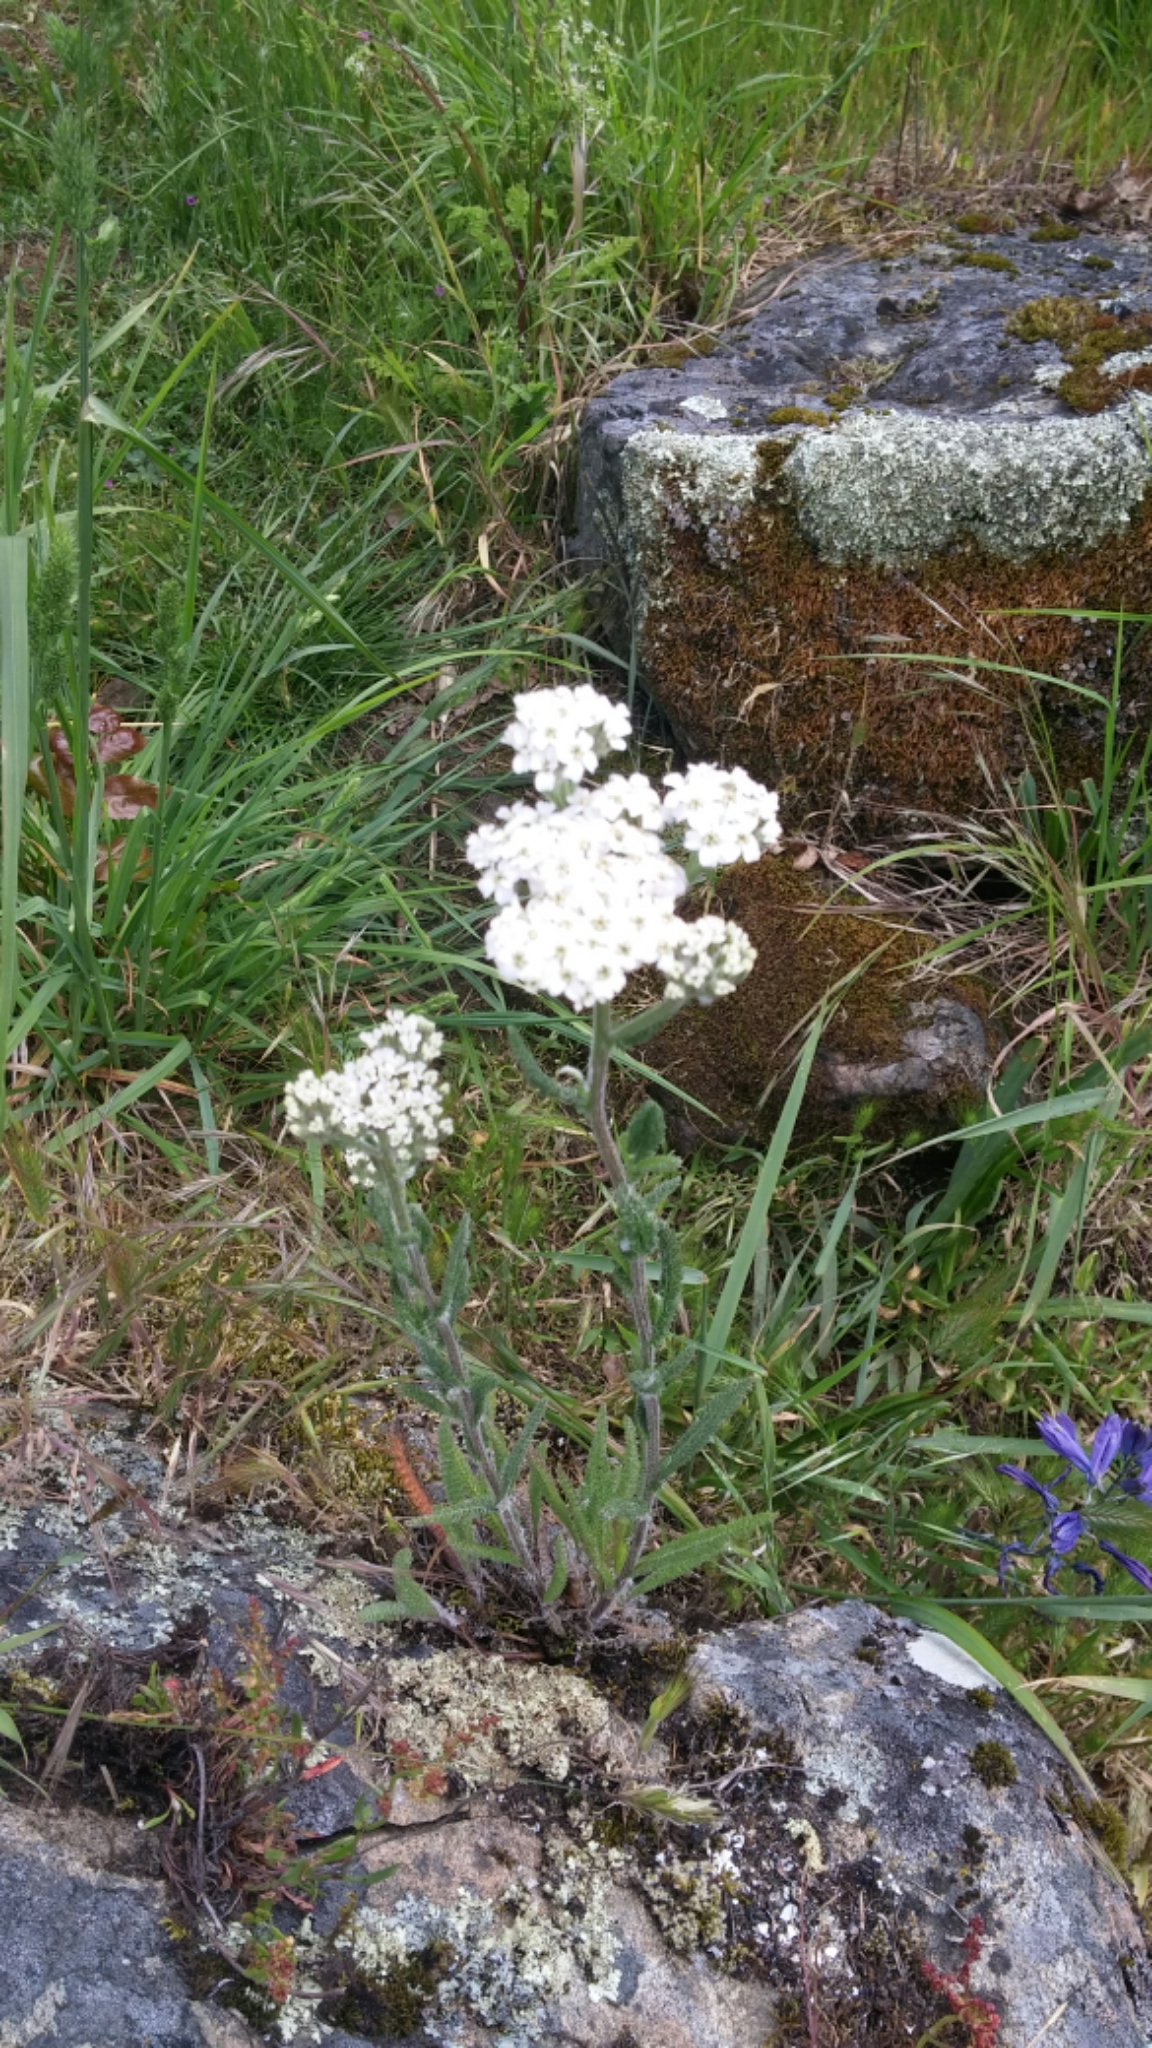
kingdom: Plantae
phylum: Tracheophyta
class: Magnoliopsida
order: Asterales
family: Asteraceae
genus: Achillea
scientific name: Achillea millefolium
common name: Yarrow
